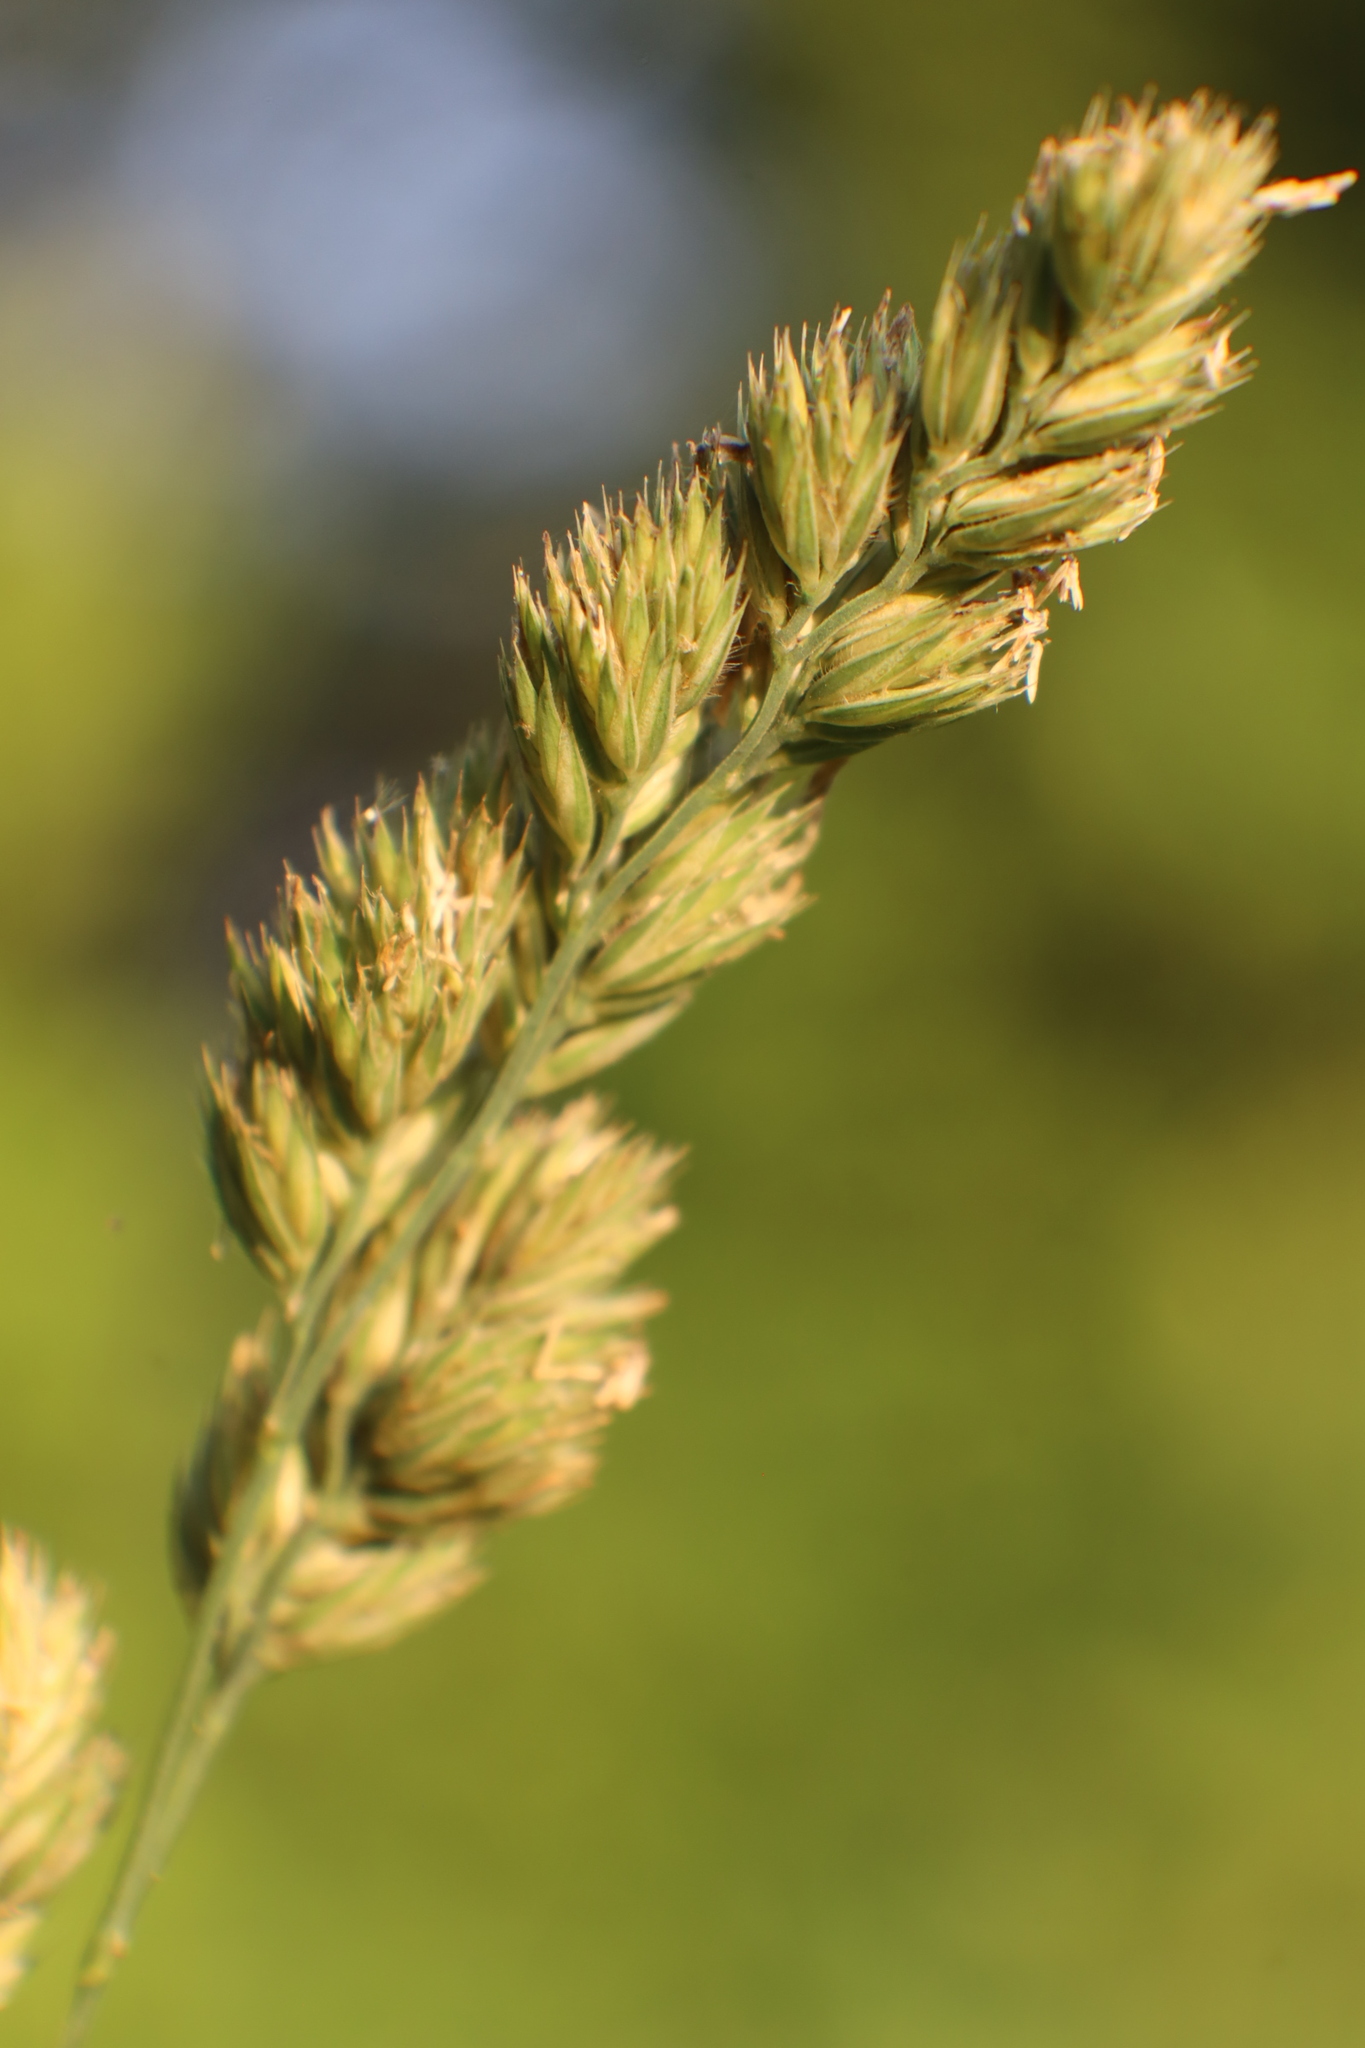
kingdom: Plantae
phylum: Tracheophyta
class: Liliopsida
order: Poales
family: Poaceae
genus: Dactylis
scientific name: Dactylis glomerata
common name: Orchardgrass
